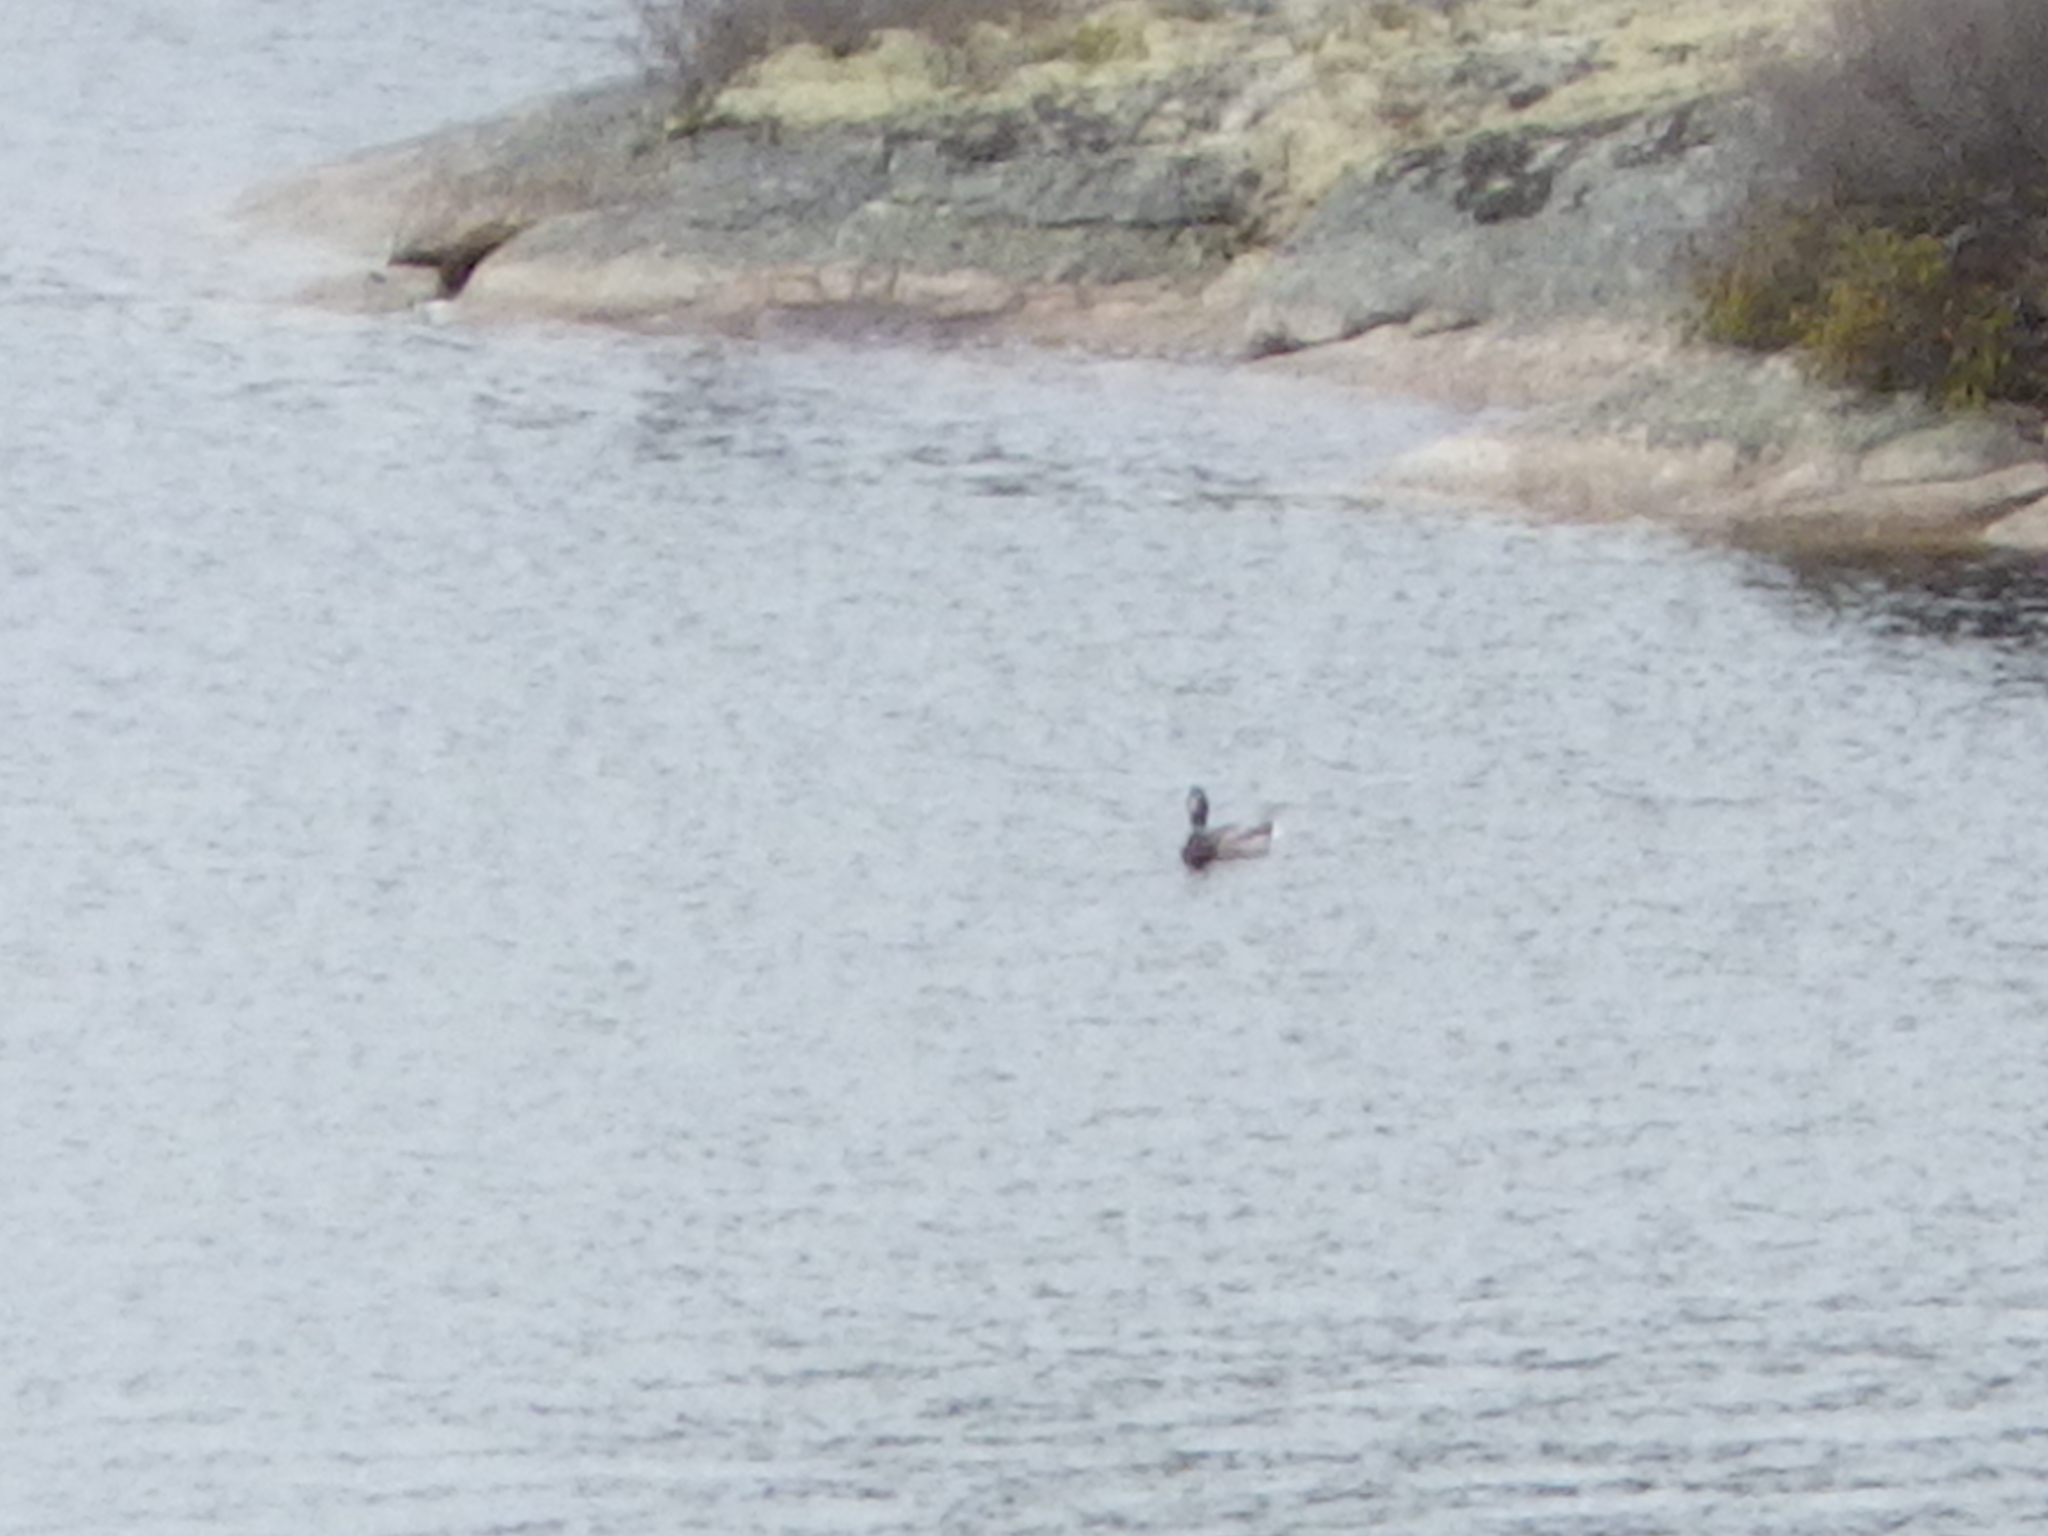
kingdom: Animalia
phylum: Chordata
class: Aves
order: Anseriformes
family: Anatidae
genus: Anas
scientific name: Anas platyrhynchos
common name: Mallard
